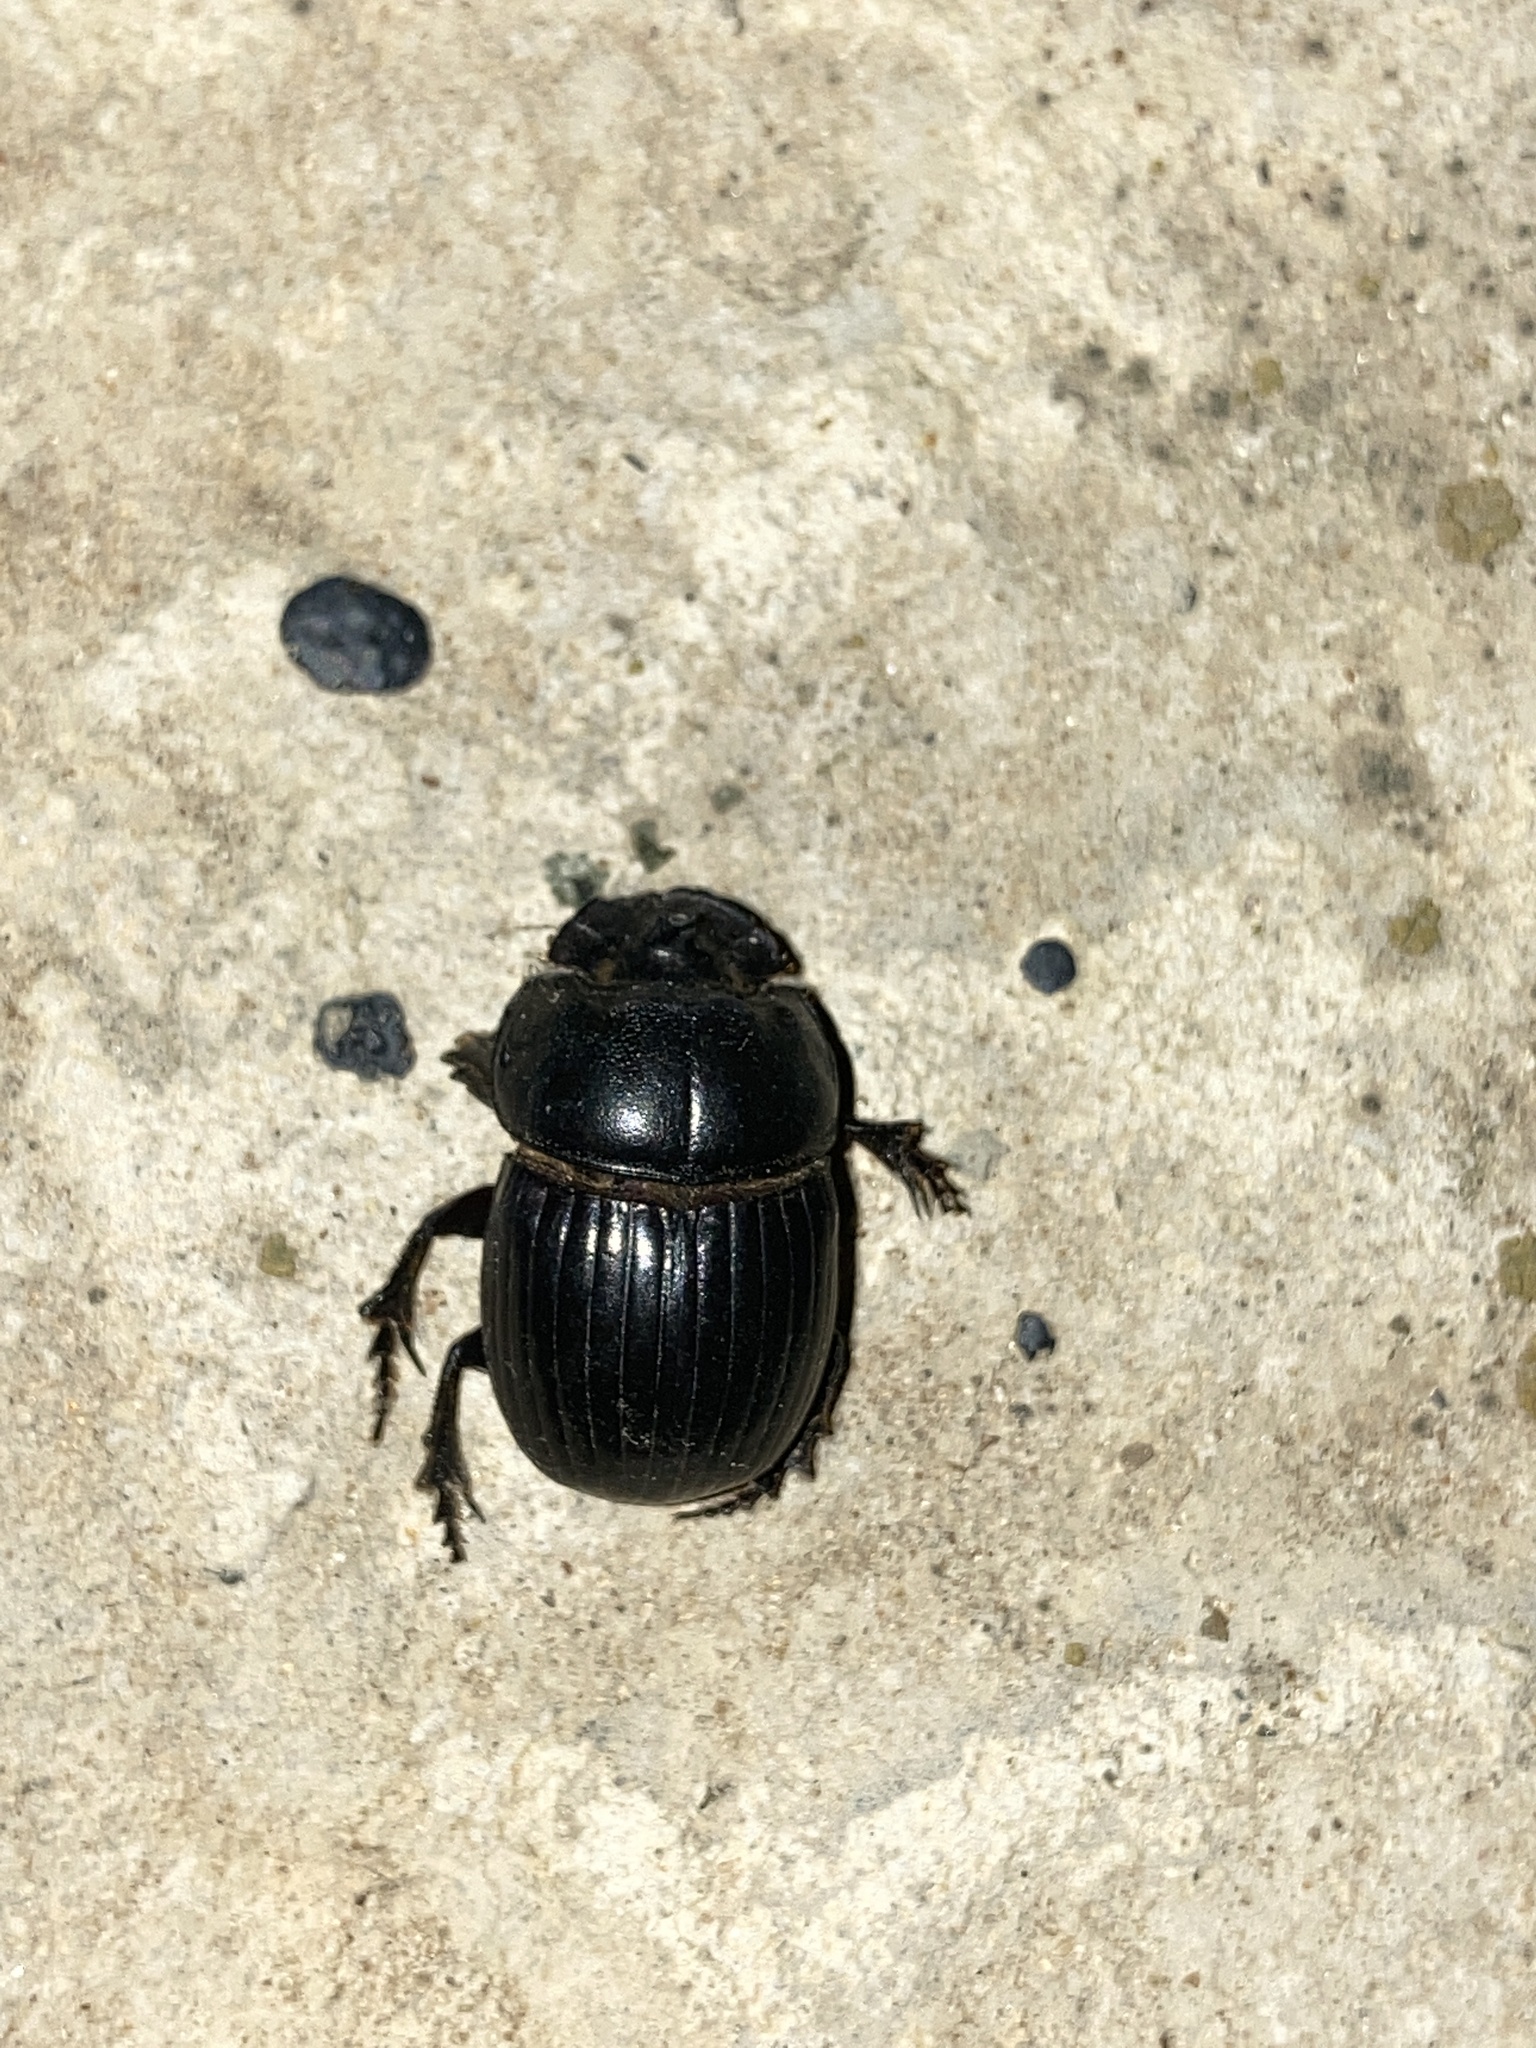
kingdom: Animalia
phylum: Arthropoda
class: Insecta
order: Coleoptera
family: Scarabaeidae
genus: Copris
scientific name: Copris lunaris
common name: Horned dung beetle
